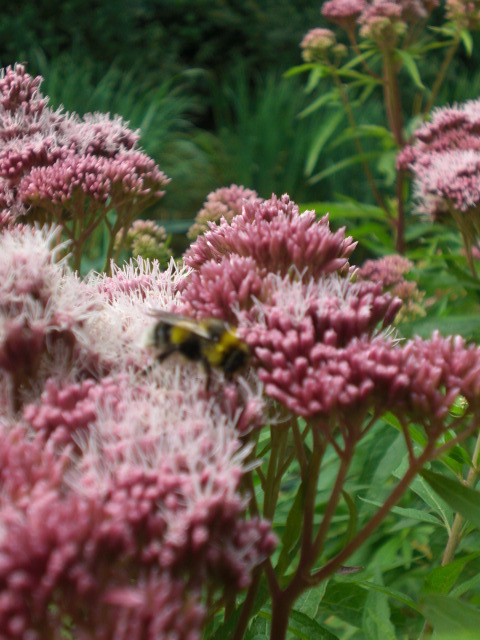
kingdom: Plantae
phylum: Tracheophyta
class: Magnoliopsida
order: Asterales
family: Asteraceae
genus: Eupatorium
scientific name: Eupatorium cannabinum
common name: Hemp-agrimony
